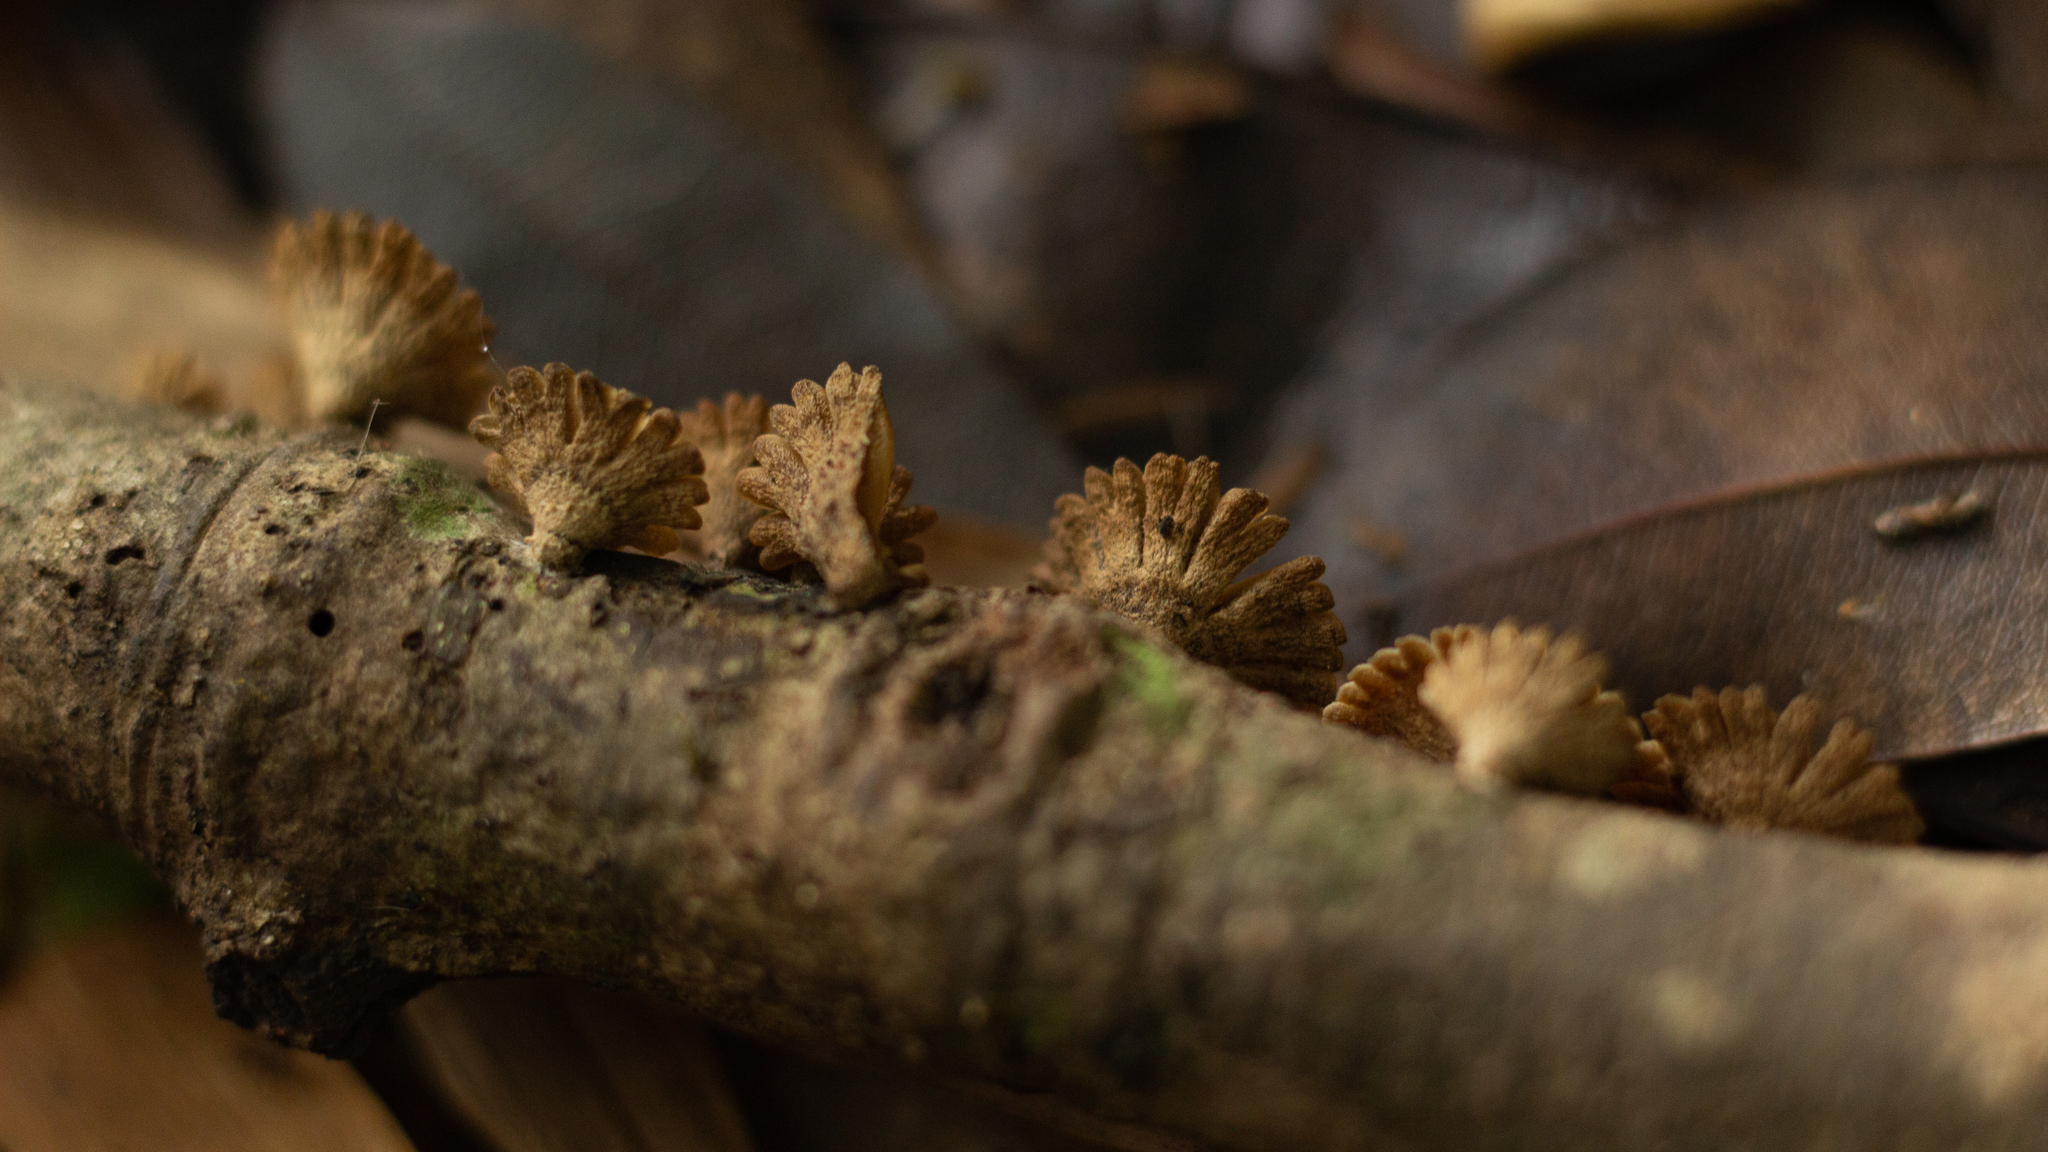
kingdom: Fungi
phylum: Basidiomycota
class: Agaricomycetes
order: Agaricales
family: Schizophyllaceae
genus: Schizophyllum
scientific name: Schizophyllum umbrinum
